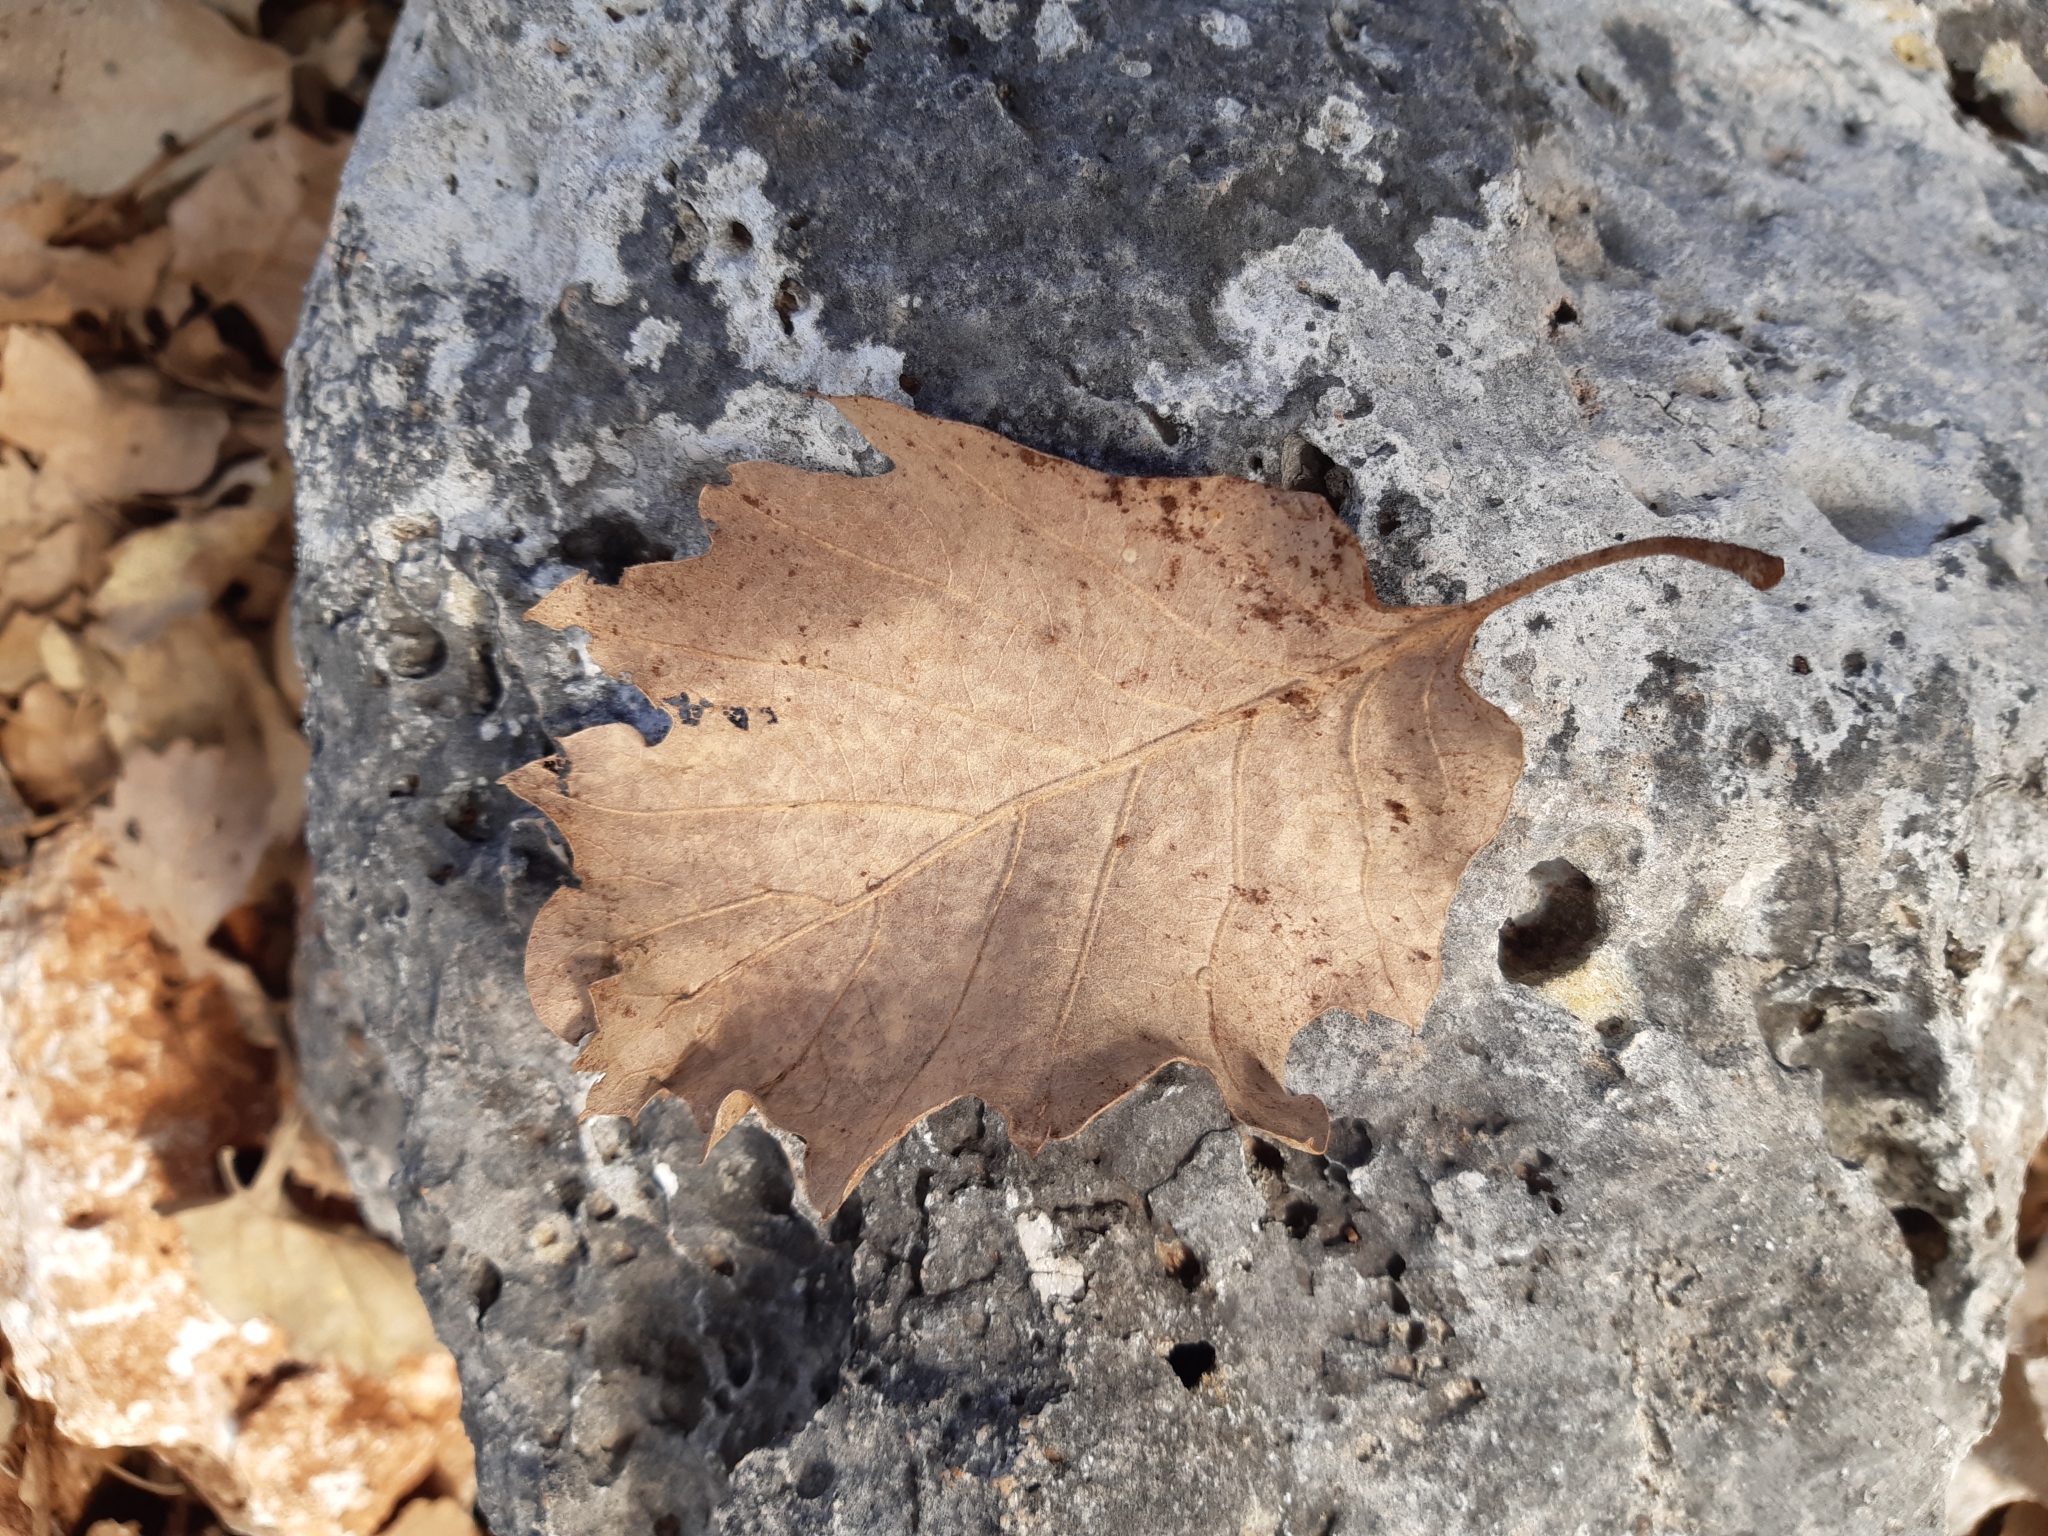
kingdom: Plantae
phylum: Tracheophyta
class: Magnoliopsida
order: Fagales
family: Fagaceae
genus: Quercus
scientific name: Quercus ithaburensis
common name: Tabor oak
